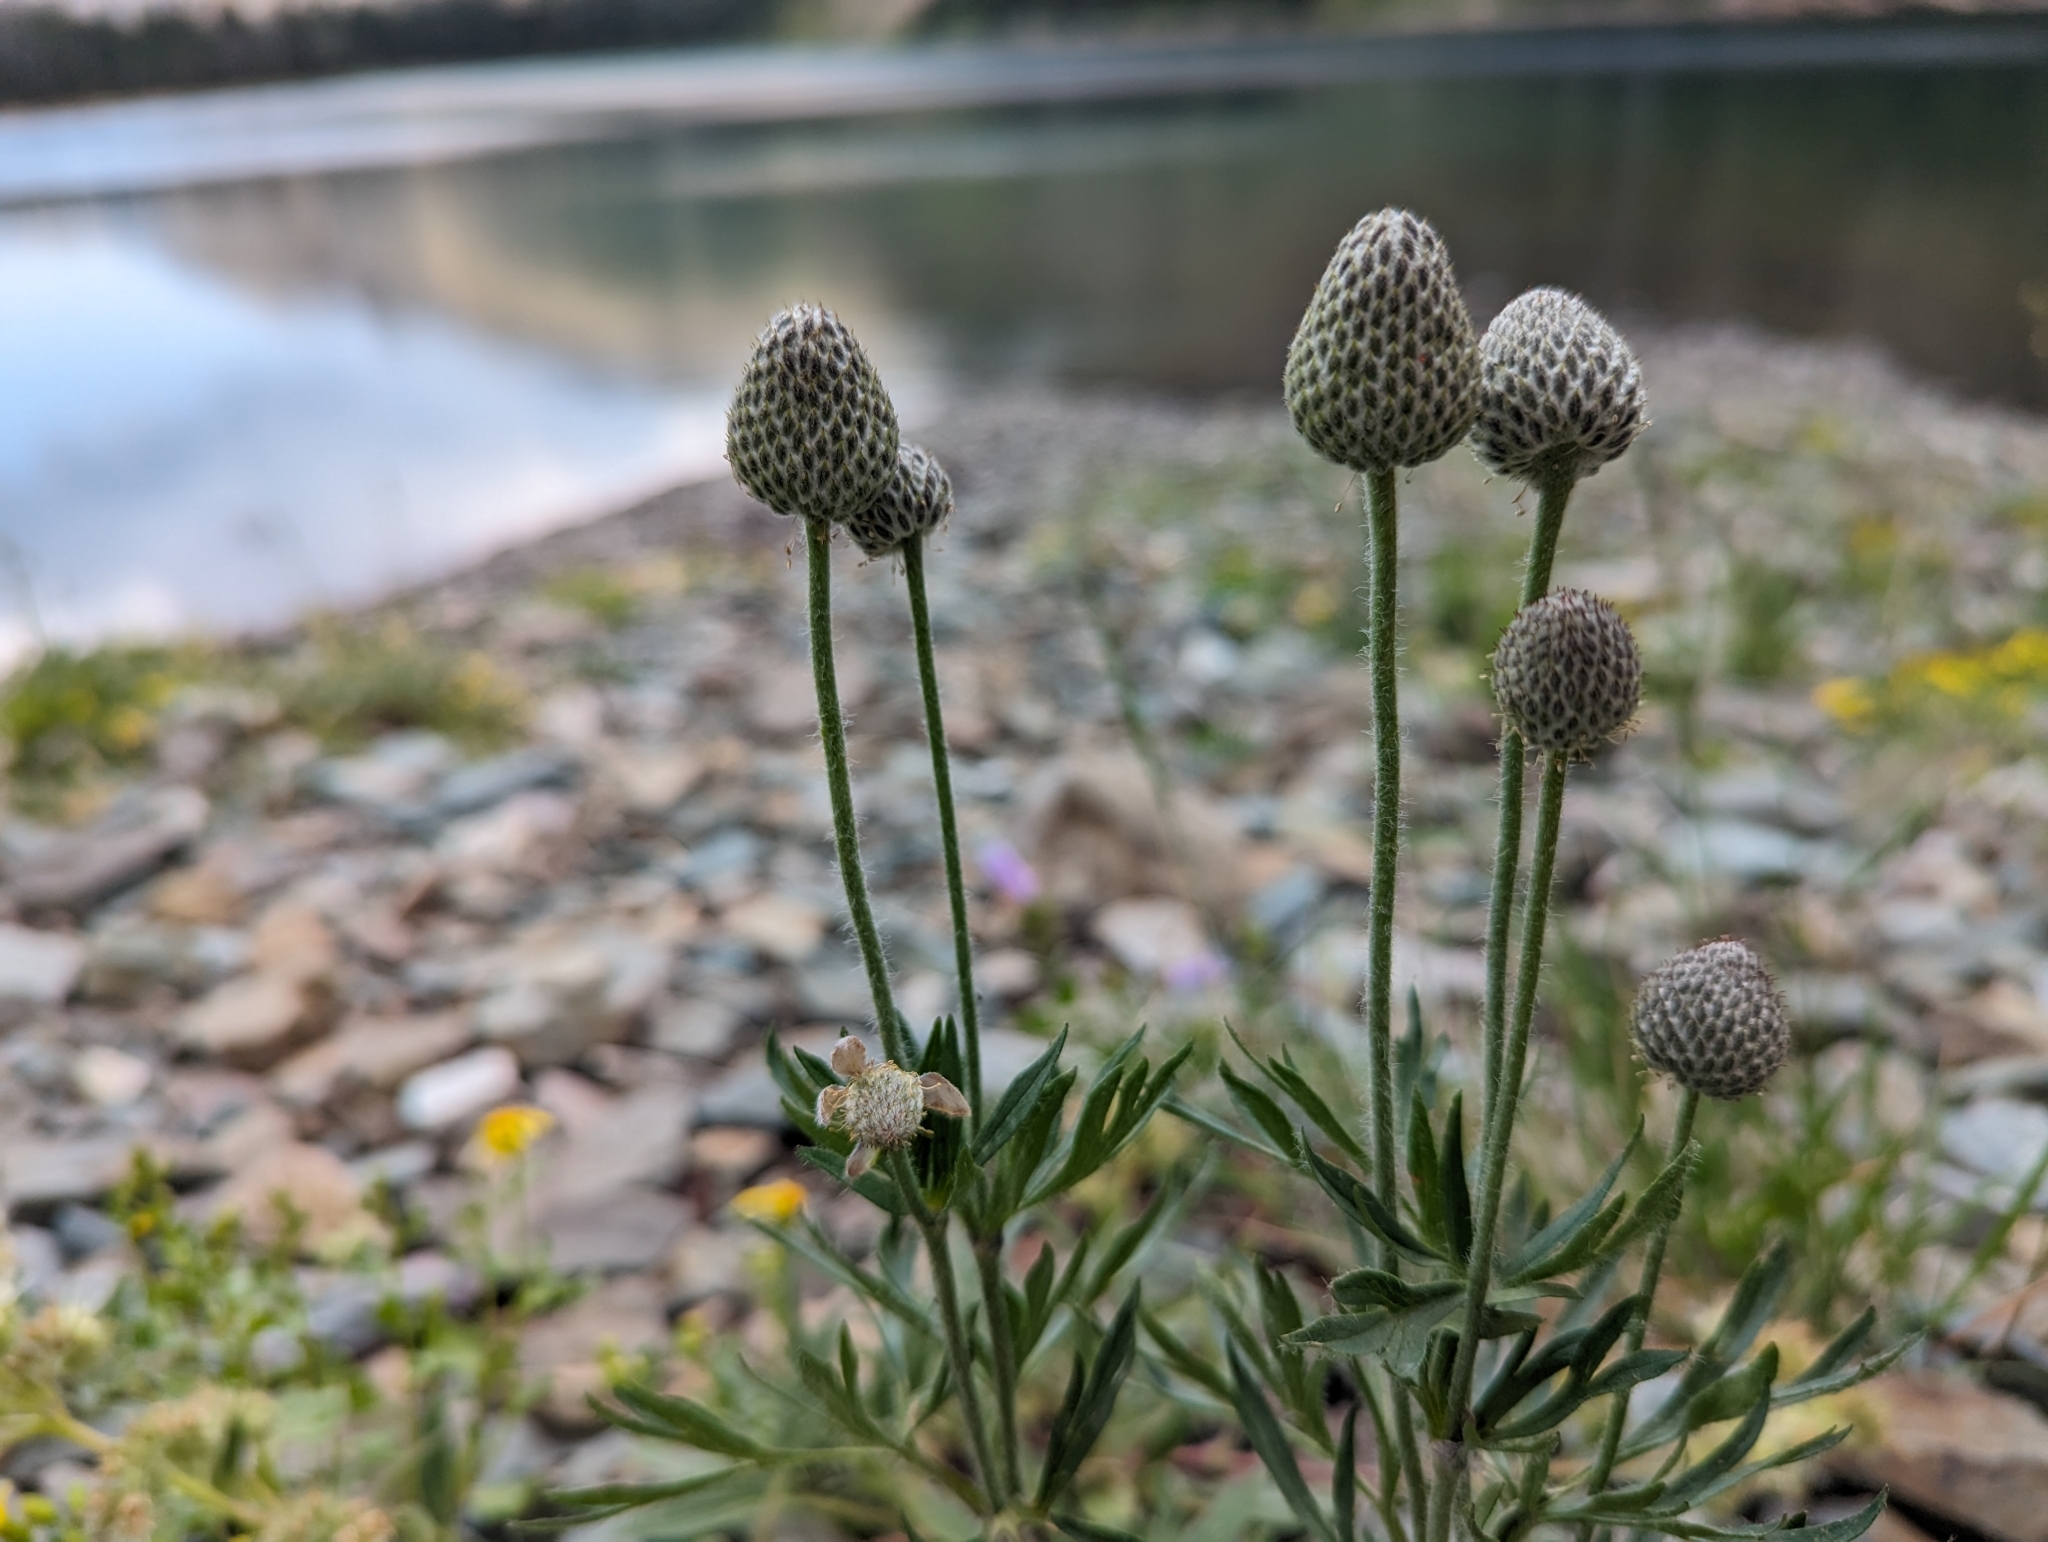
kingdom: Plantae
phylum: Tracheophyta
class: Magnoliopsida
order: Ranunculales
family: Ranunculaceae
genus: Anemone
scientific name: Anemone multifida
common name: Bird's-foot anemone
